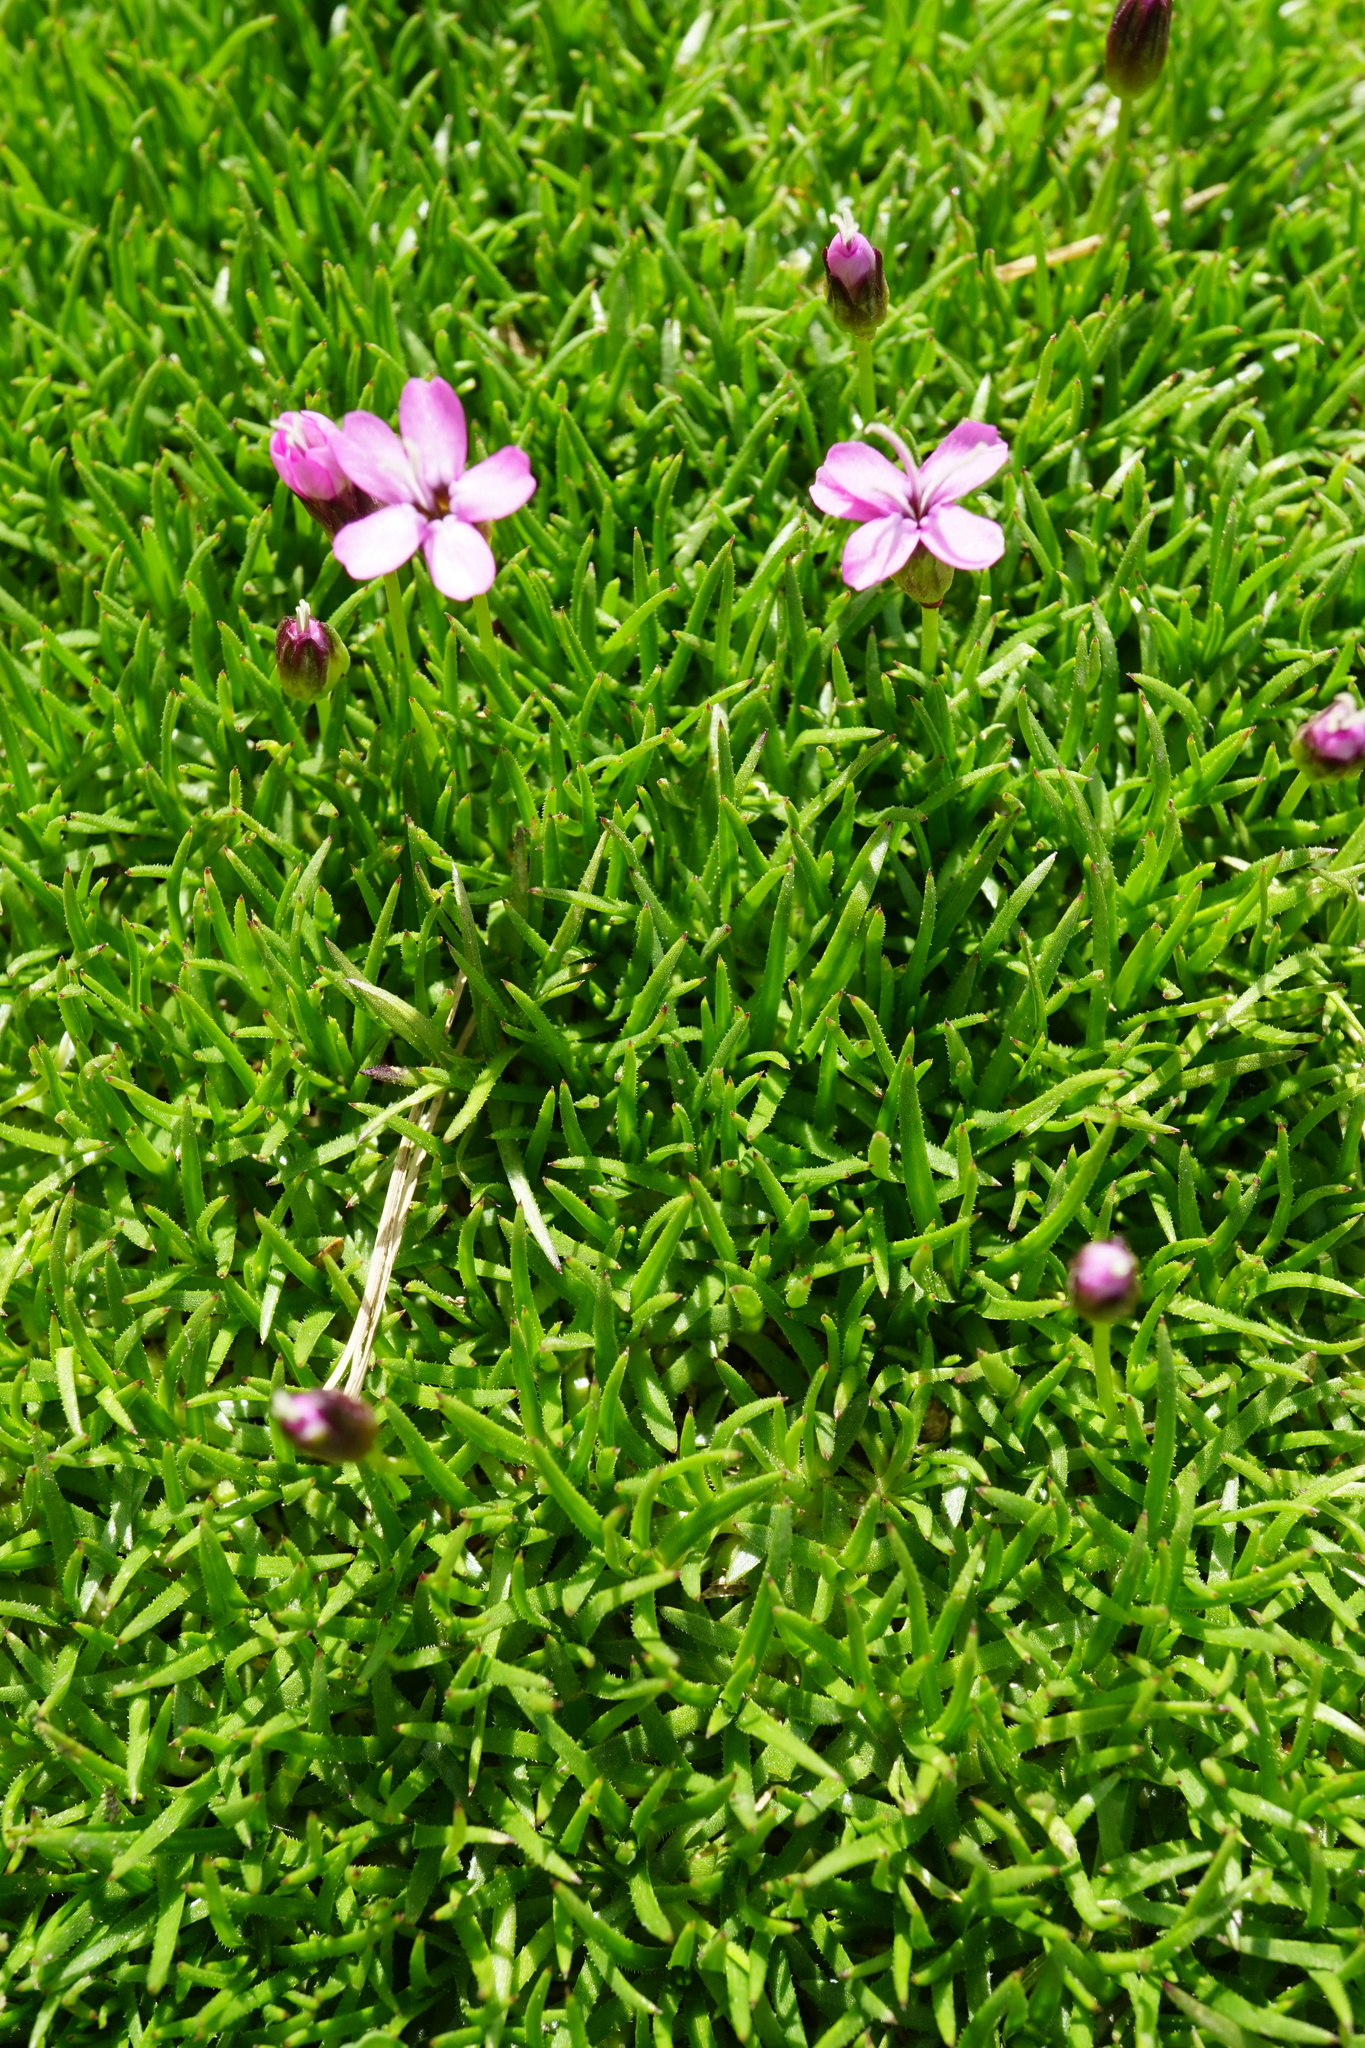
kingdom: Plantae
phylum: Tracheophyta
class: Magnoliopsida
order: Caryophyllales
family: Caryophyllaceae
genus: Silene
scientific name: Silene acaulis
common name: Moss campion
